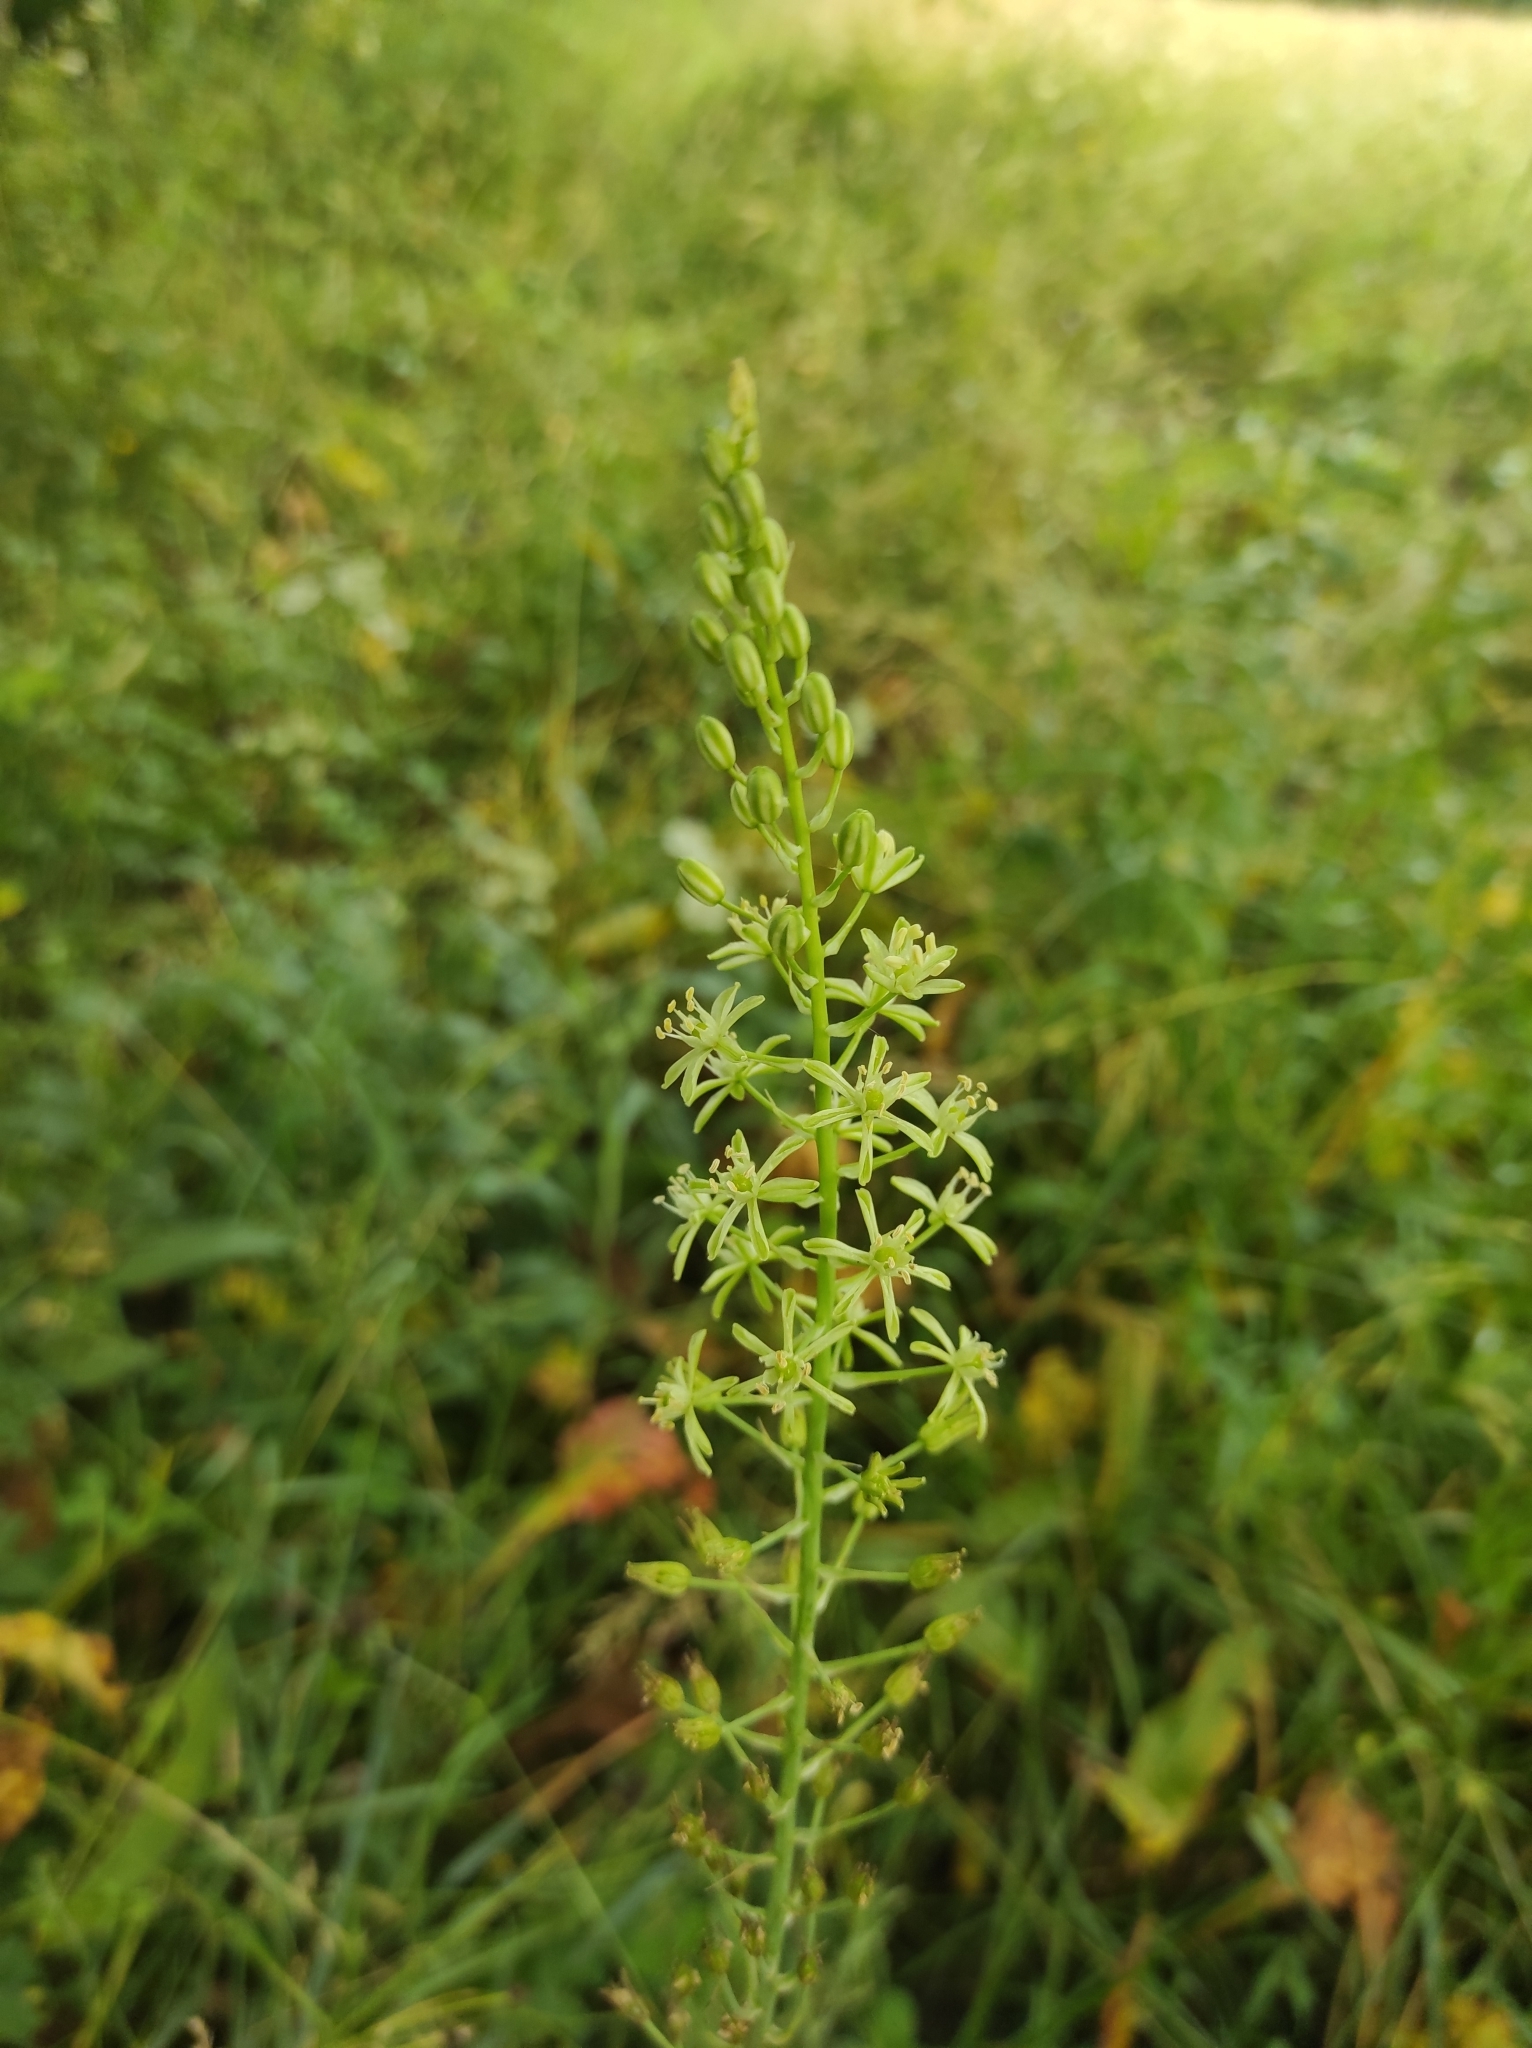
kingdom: Plantae
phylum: Tracheophyta
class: Liliopsida
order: Asparagales
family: Asparagaceae
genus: Ornithogalum
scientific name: Ornithogalum pyrenaicum
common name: Spiked star-of-bethlehem
